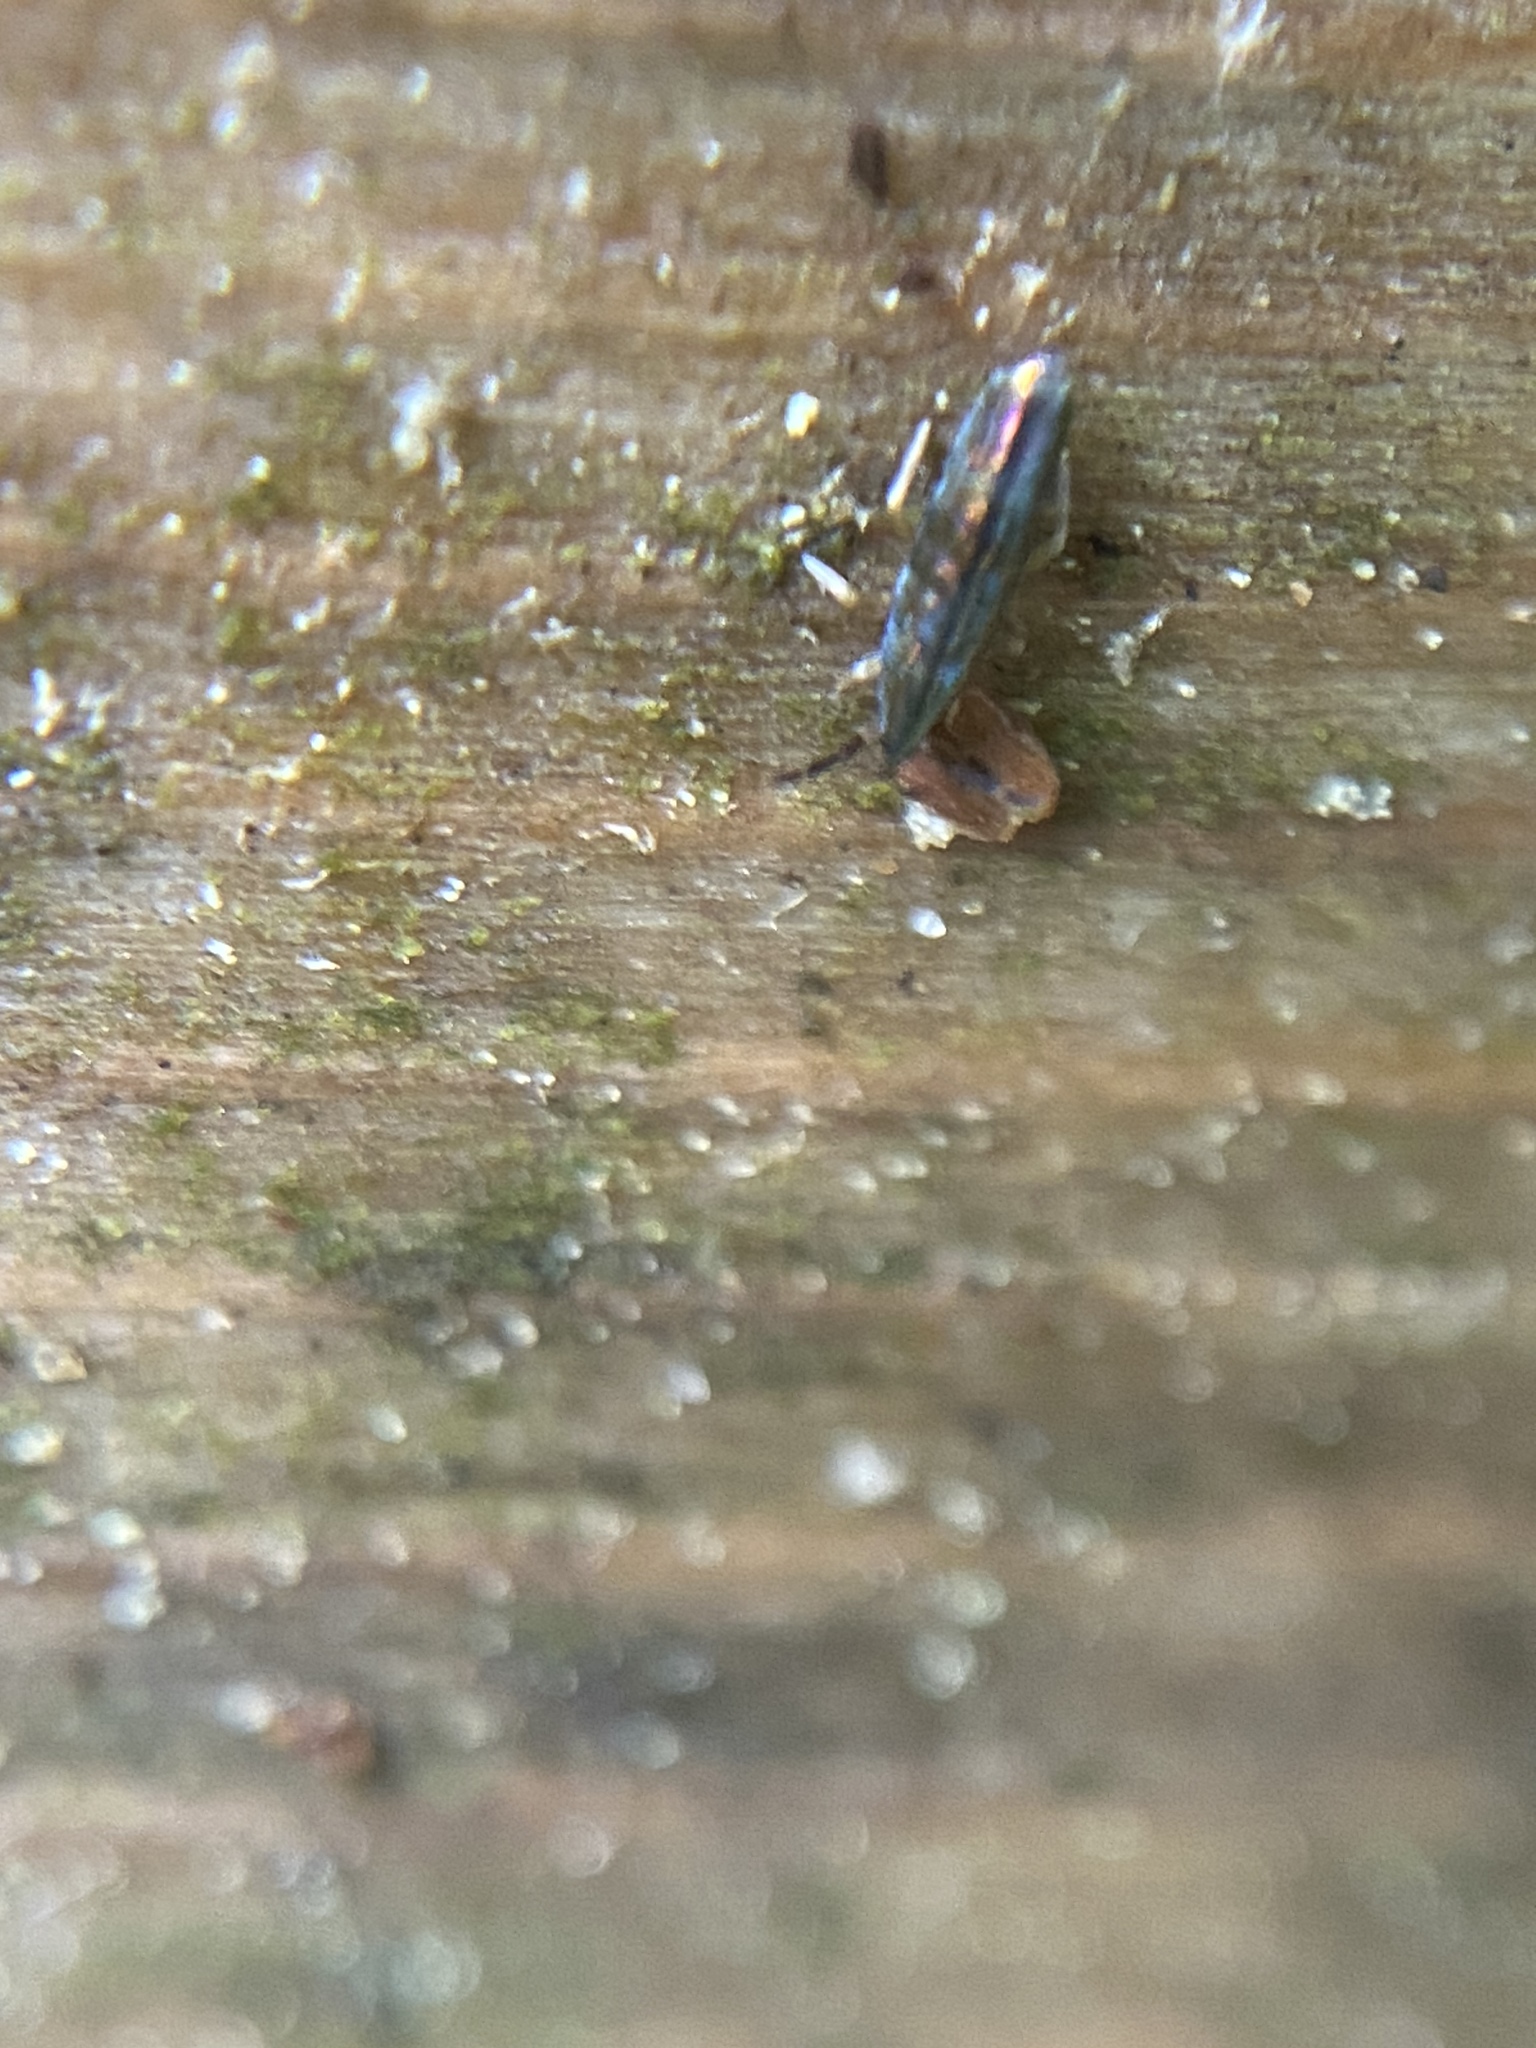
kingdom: Animalia
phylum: Arthropoda
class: Collembola
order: Entomobryomorpha
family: Entomobryidae
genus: Lepidocyrtus
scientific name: Lepidocyrtus paradoxus
